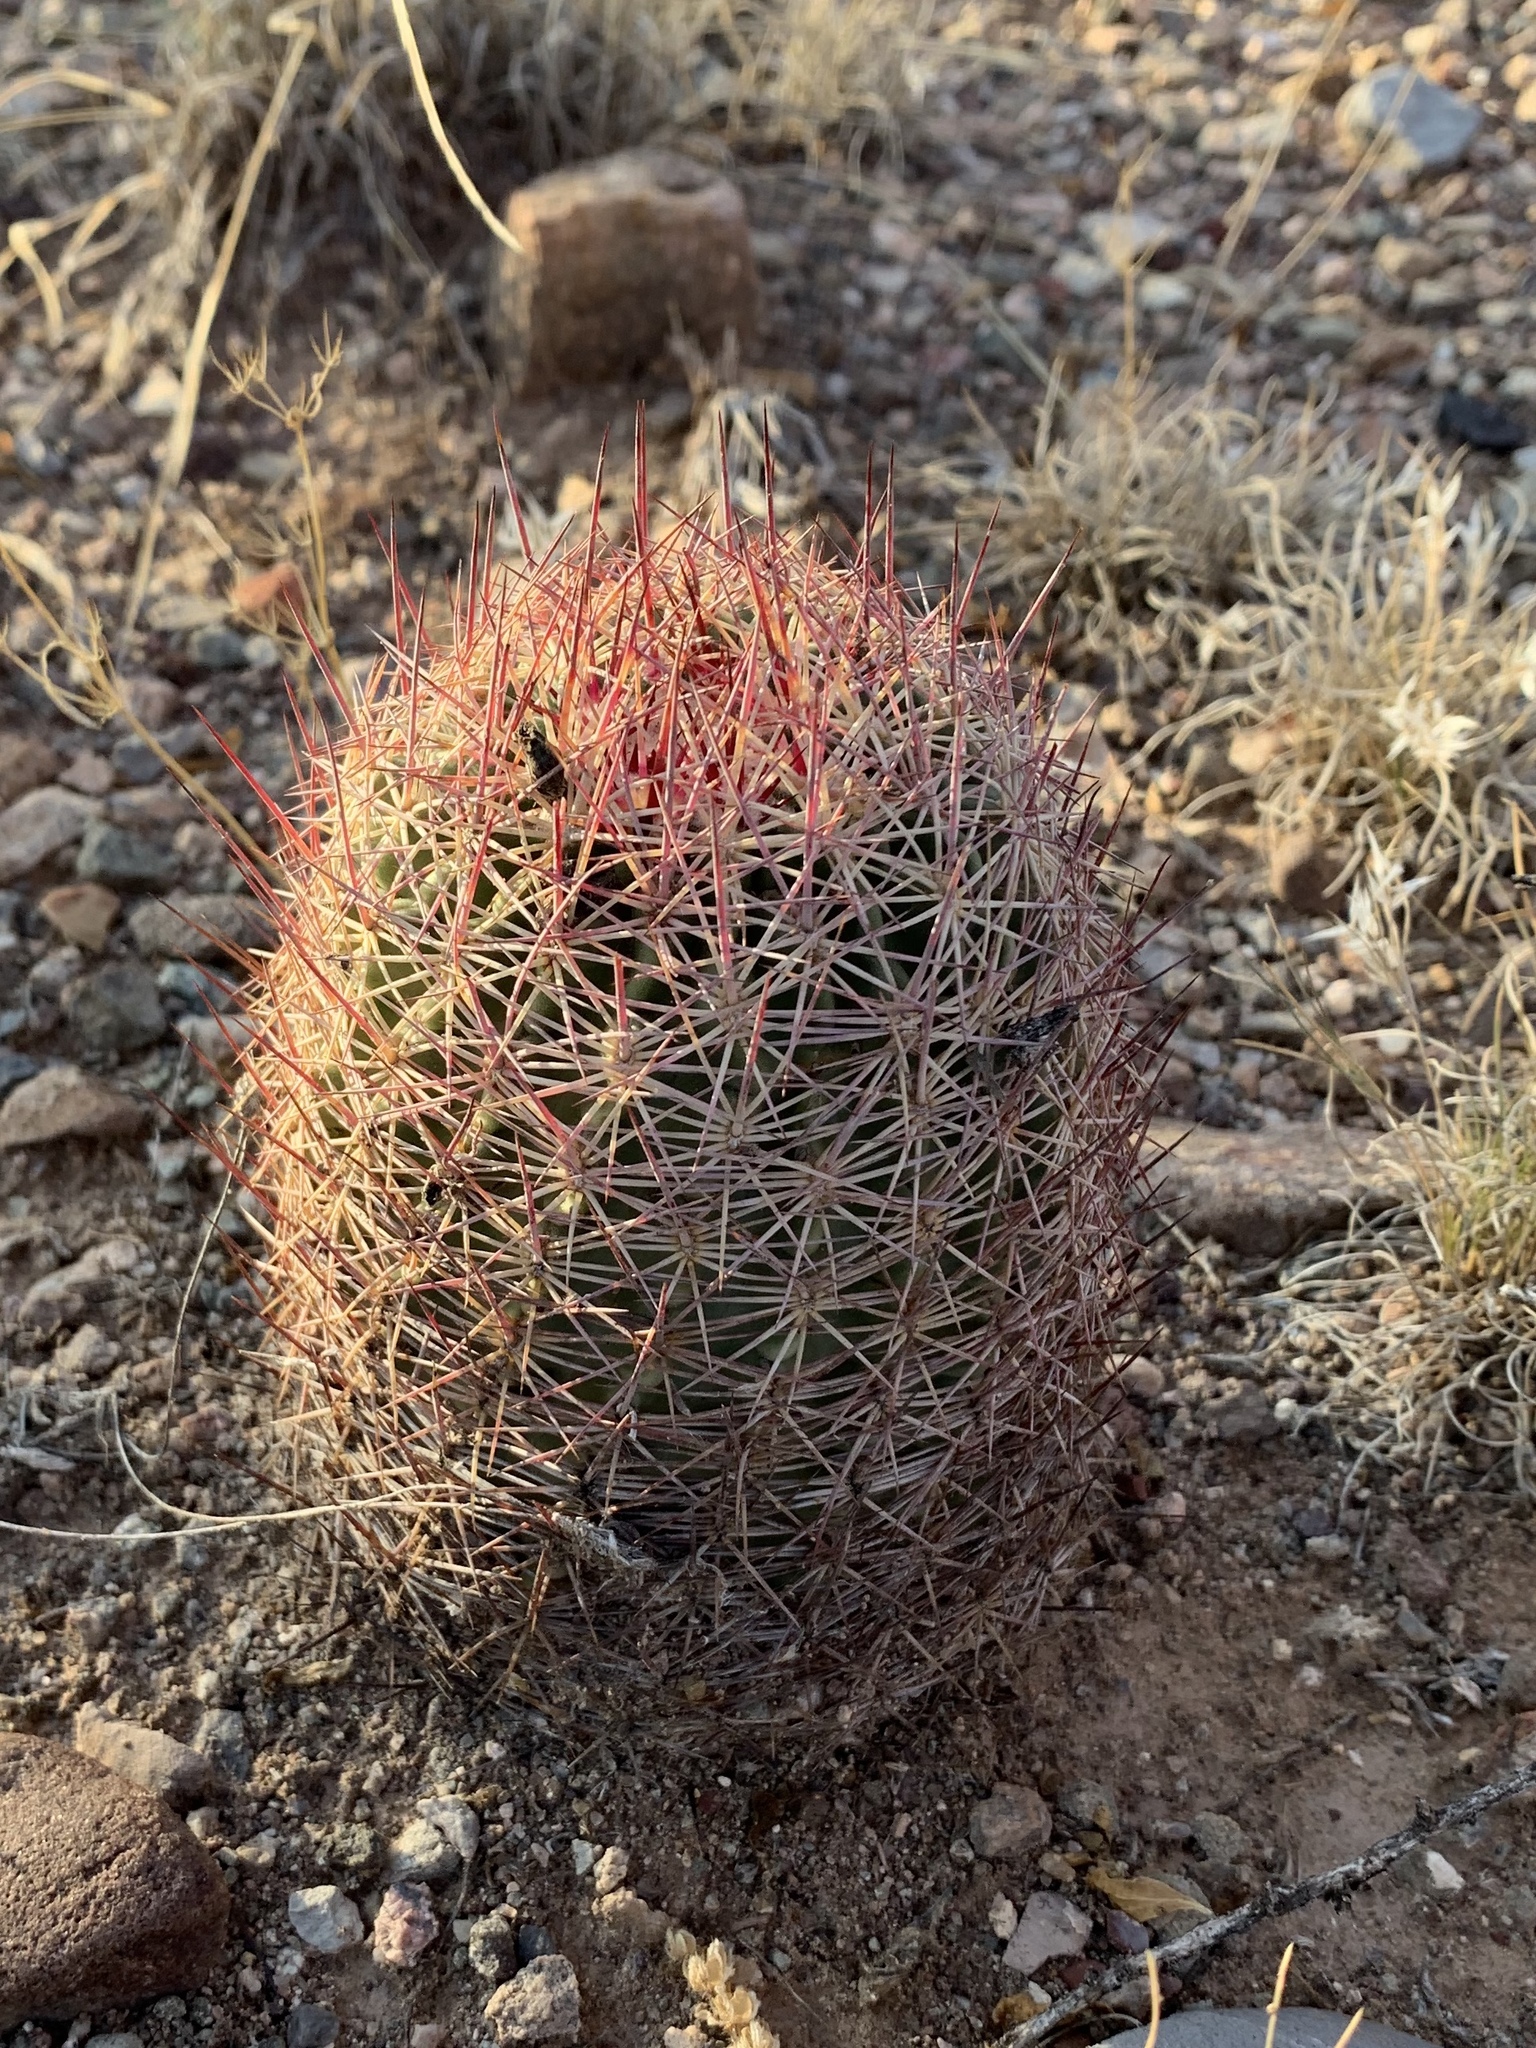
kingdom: Plantae
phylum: Tracheophyta
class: Magnoliopsida
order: Caryophyllales
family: Cactaceae
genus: Sclerocactus
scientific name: Sclerocactus johnsonii
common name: Eight-spine fishhook cactus
